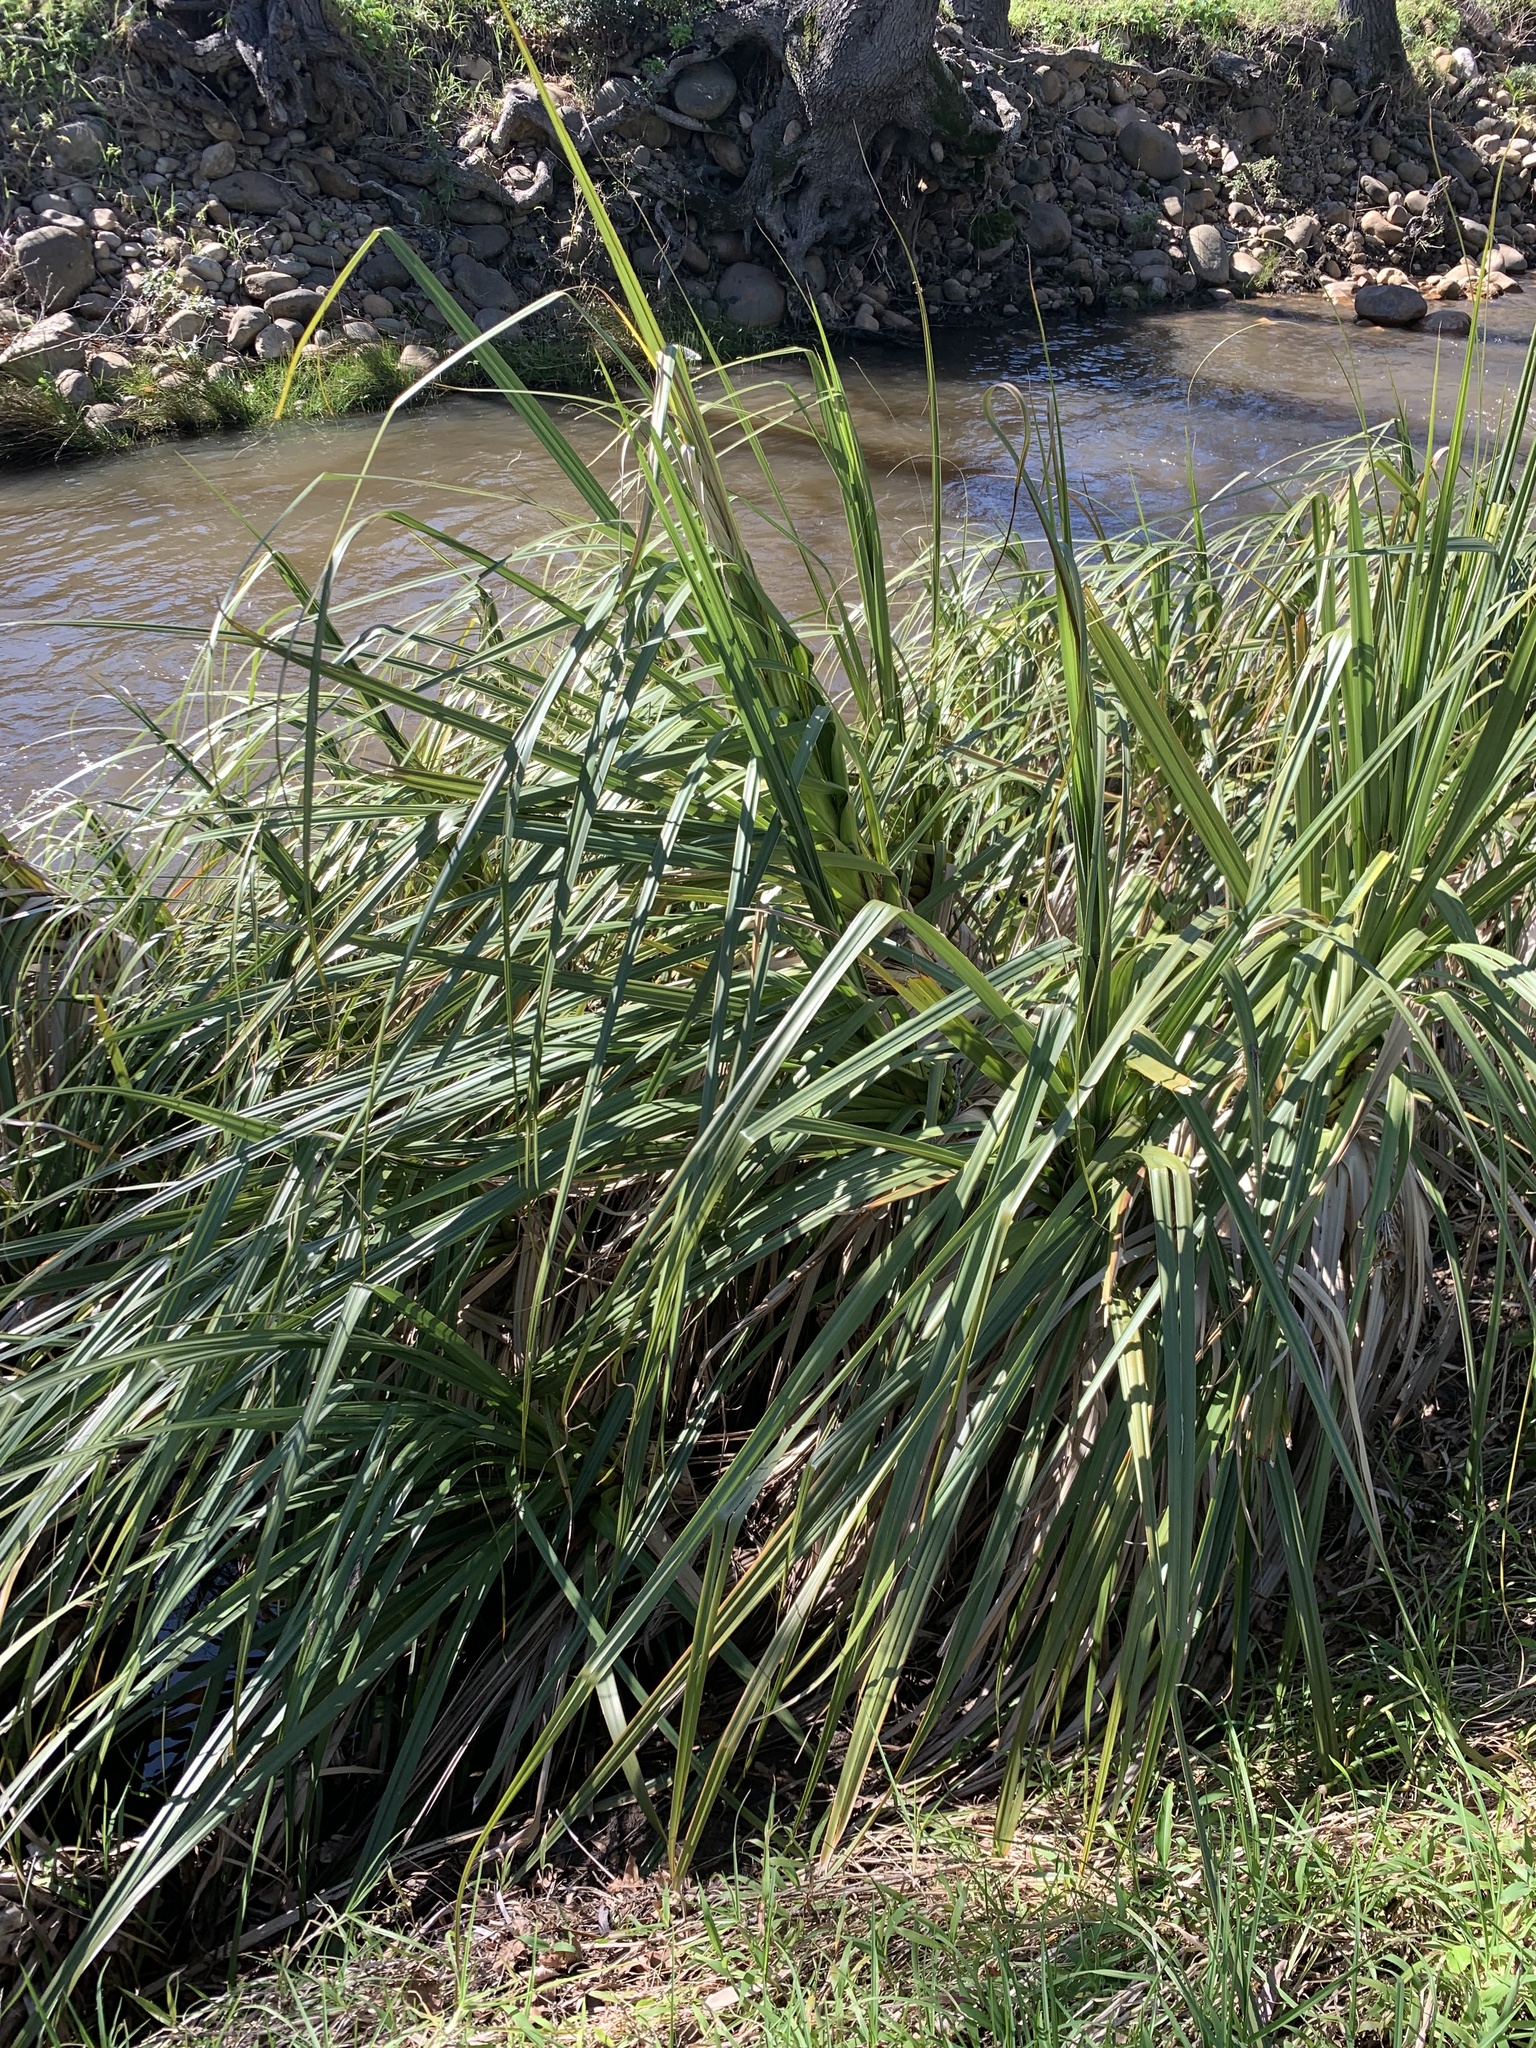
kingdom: Plantae
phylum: Tracheophyta
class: Liliopsida
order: Poales
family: Thurniaceae
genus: Prionium
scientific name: Prionium serratum
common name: Palmiet
